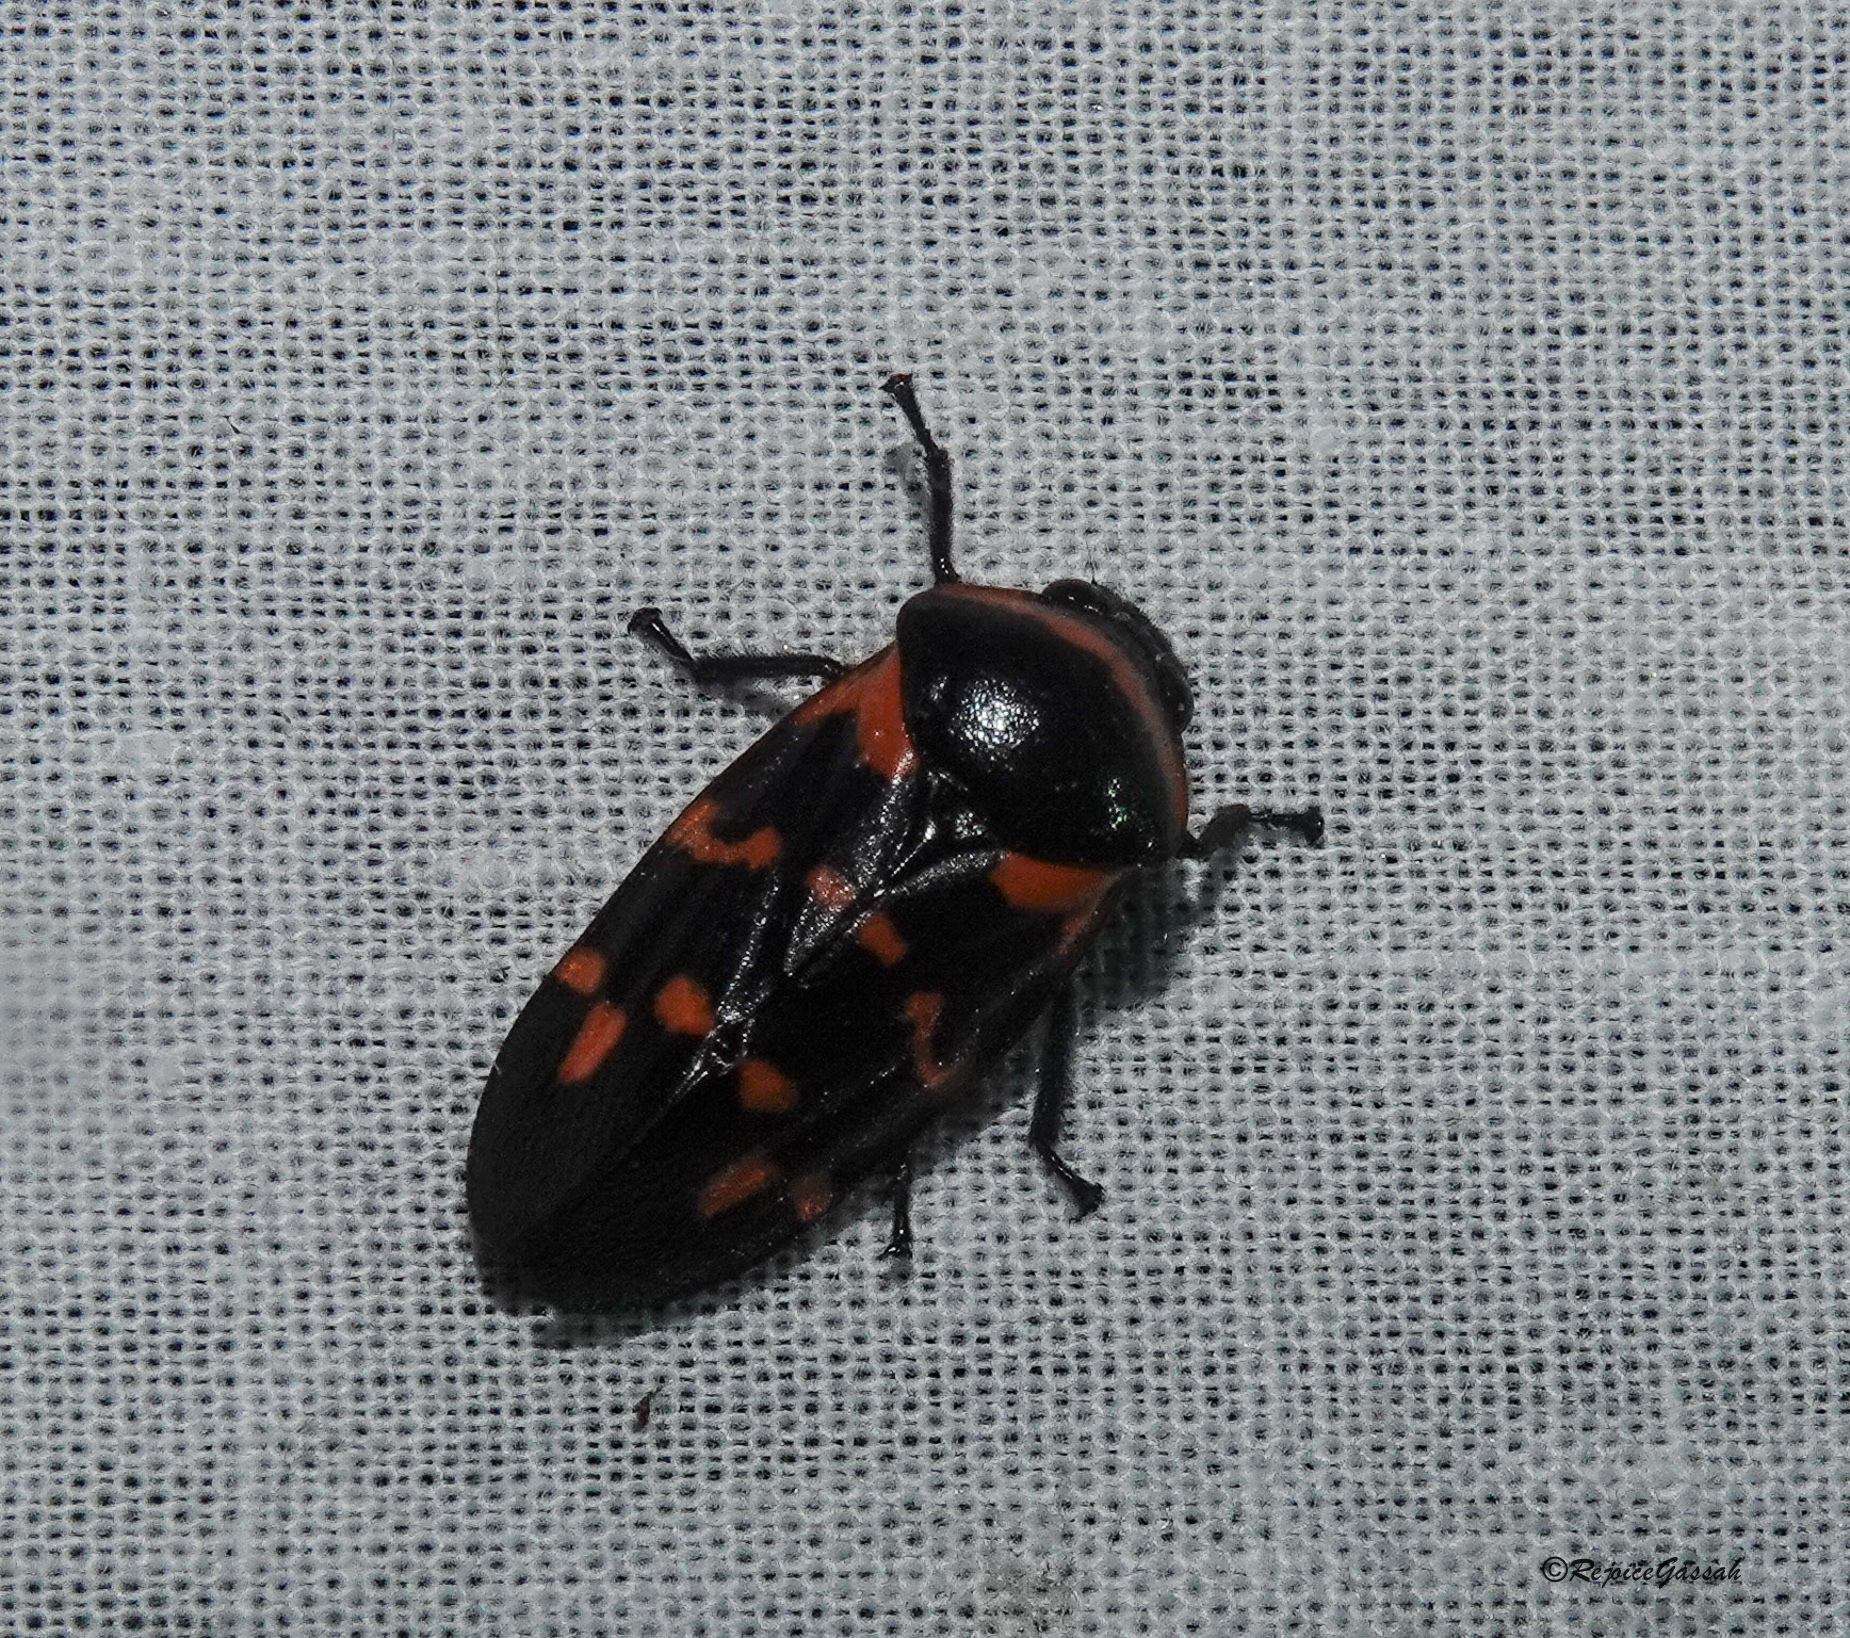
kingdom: Animalia
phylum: Arthropoda
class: Insecta
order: Hemiptera
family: Cercopidae
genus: Cosmoscarta
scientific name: Cosmoscarta dimidiata
